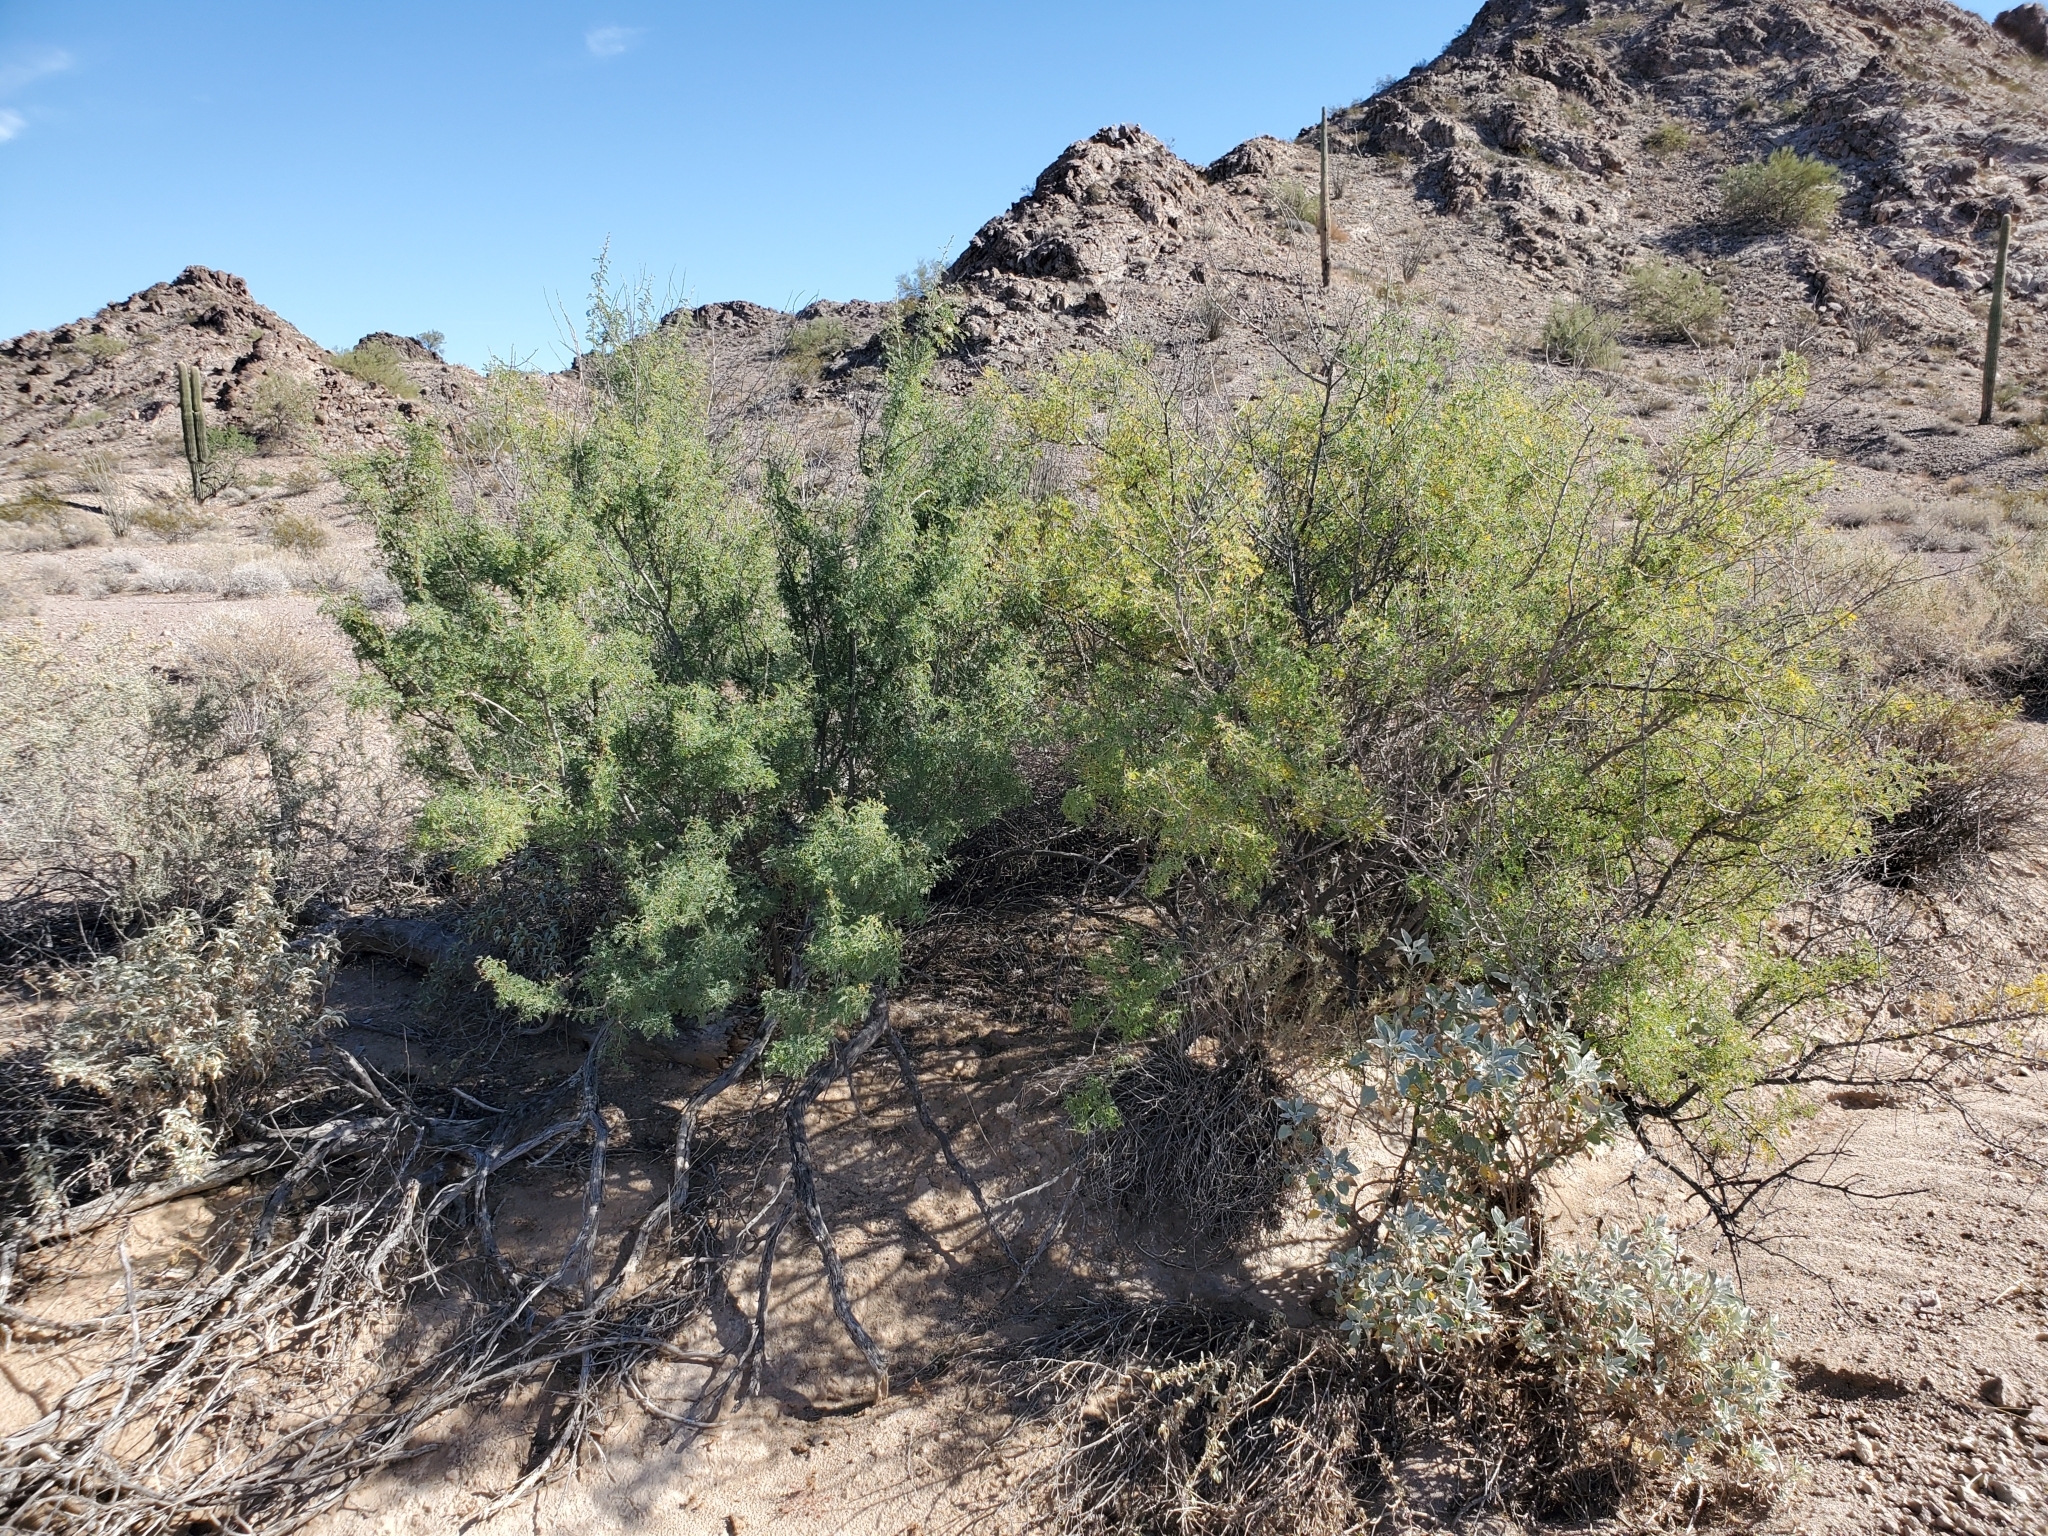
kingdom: Plantae
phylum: Tracheophyta
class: Magnoliopsida
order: Fabales
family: Fabaceae
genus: Senegalia
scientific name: Senegalia greggii
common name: Texas-mimosa
